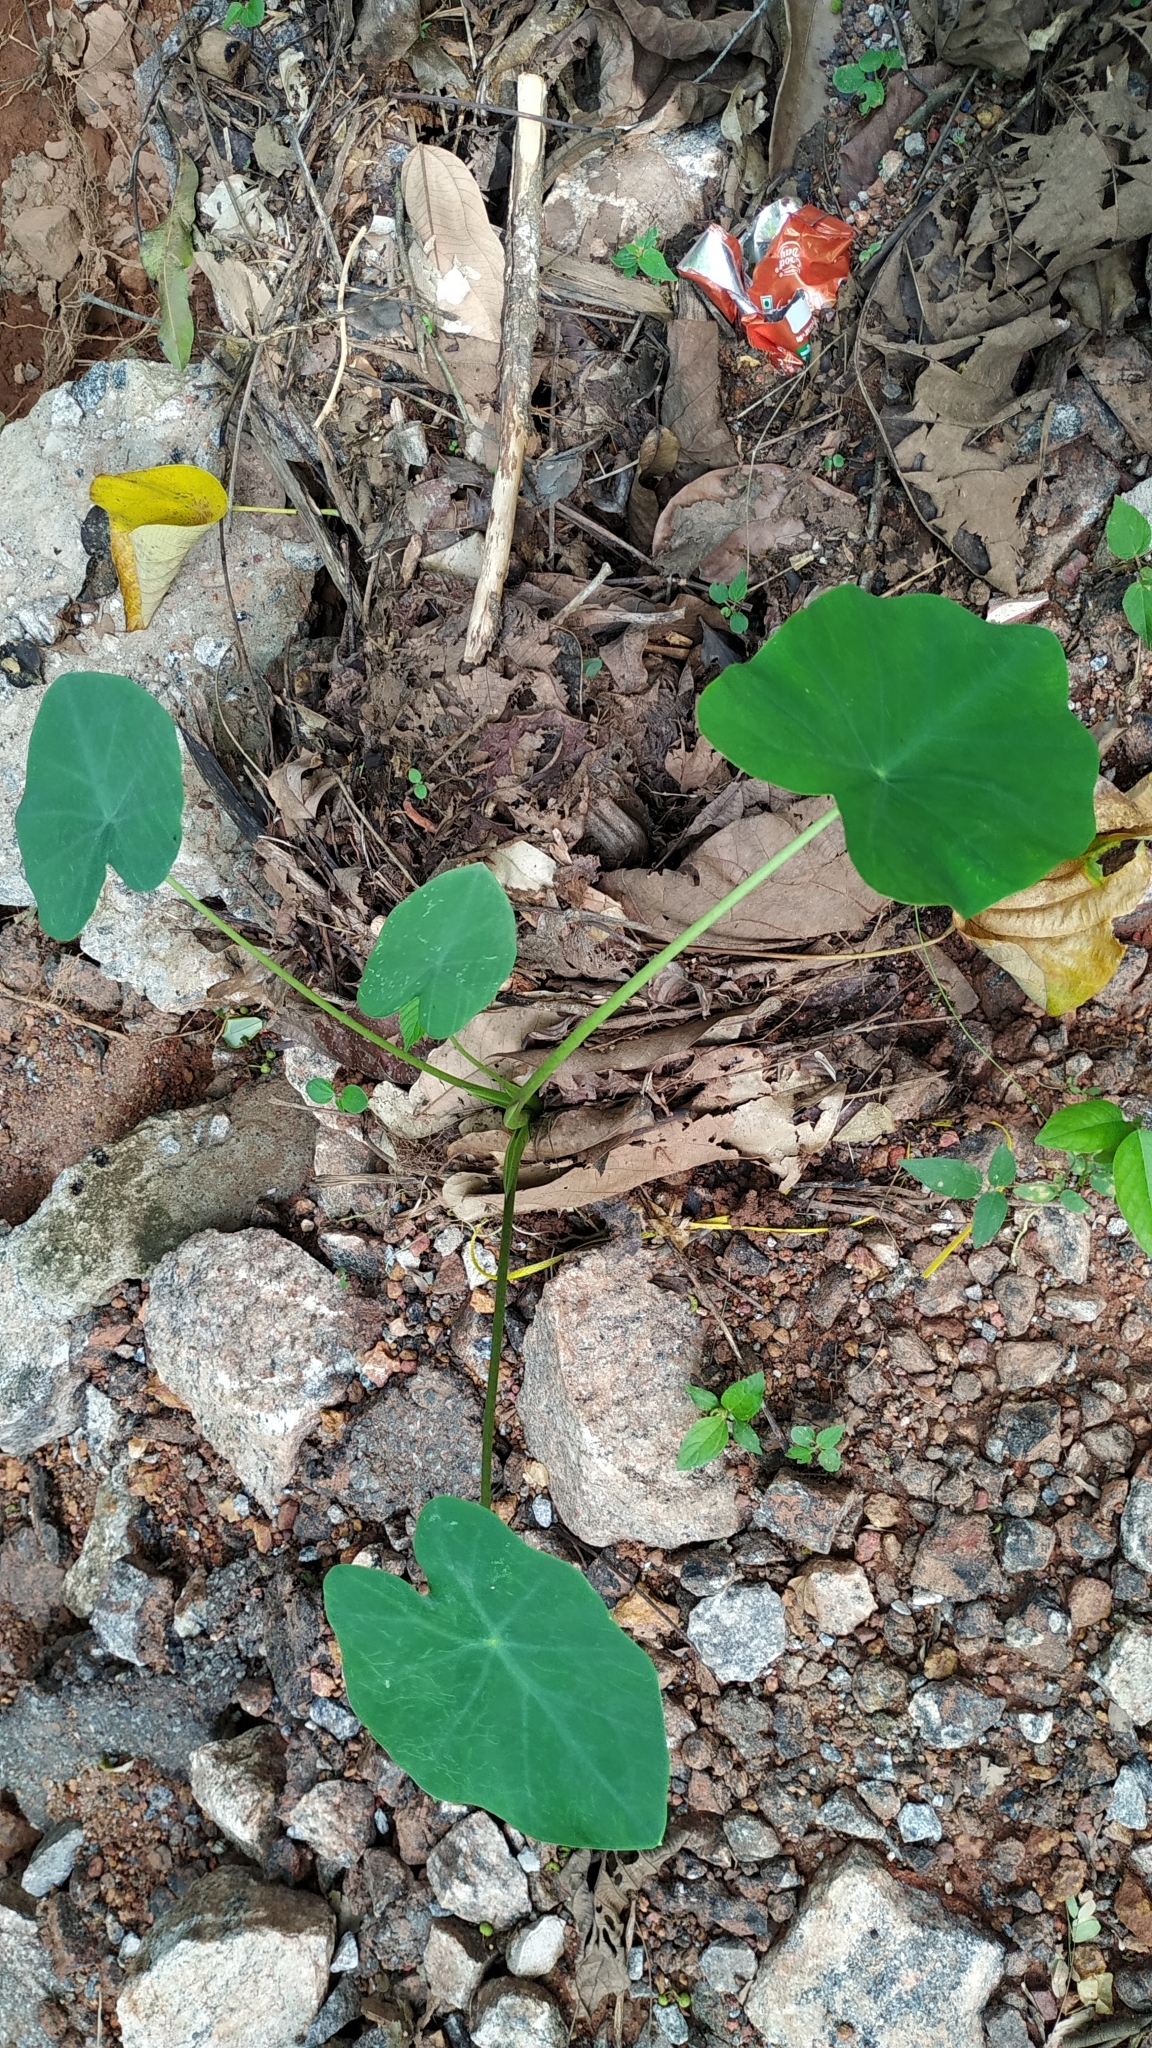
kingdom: Plantae
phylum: Tracheophyta
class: Liliopsida
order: Alismatales
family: Araceae
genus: Colocasia
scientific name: Colocasia esculenta
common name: Taro
